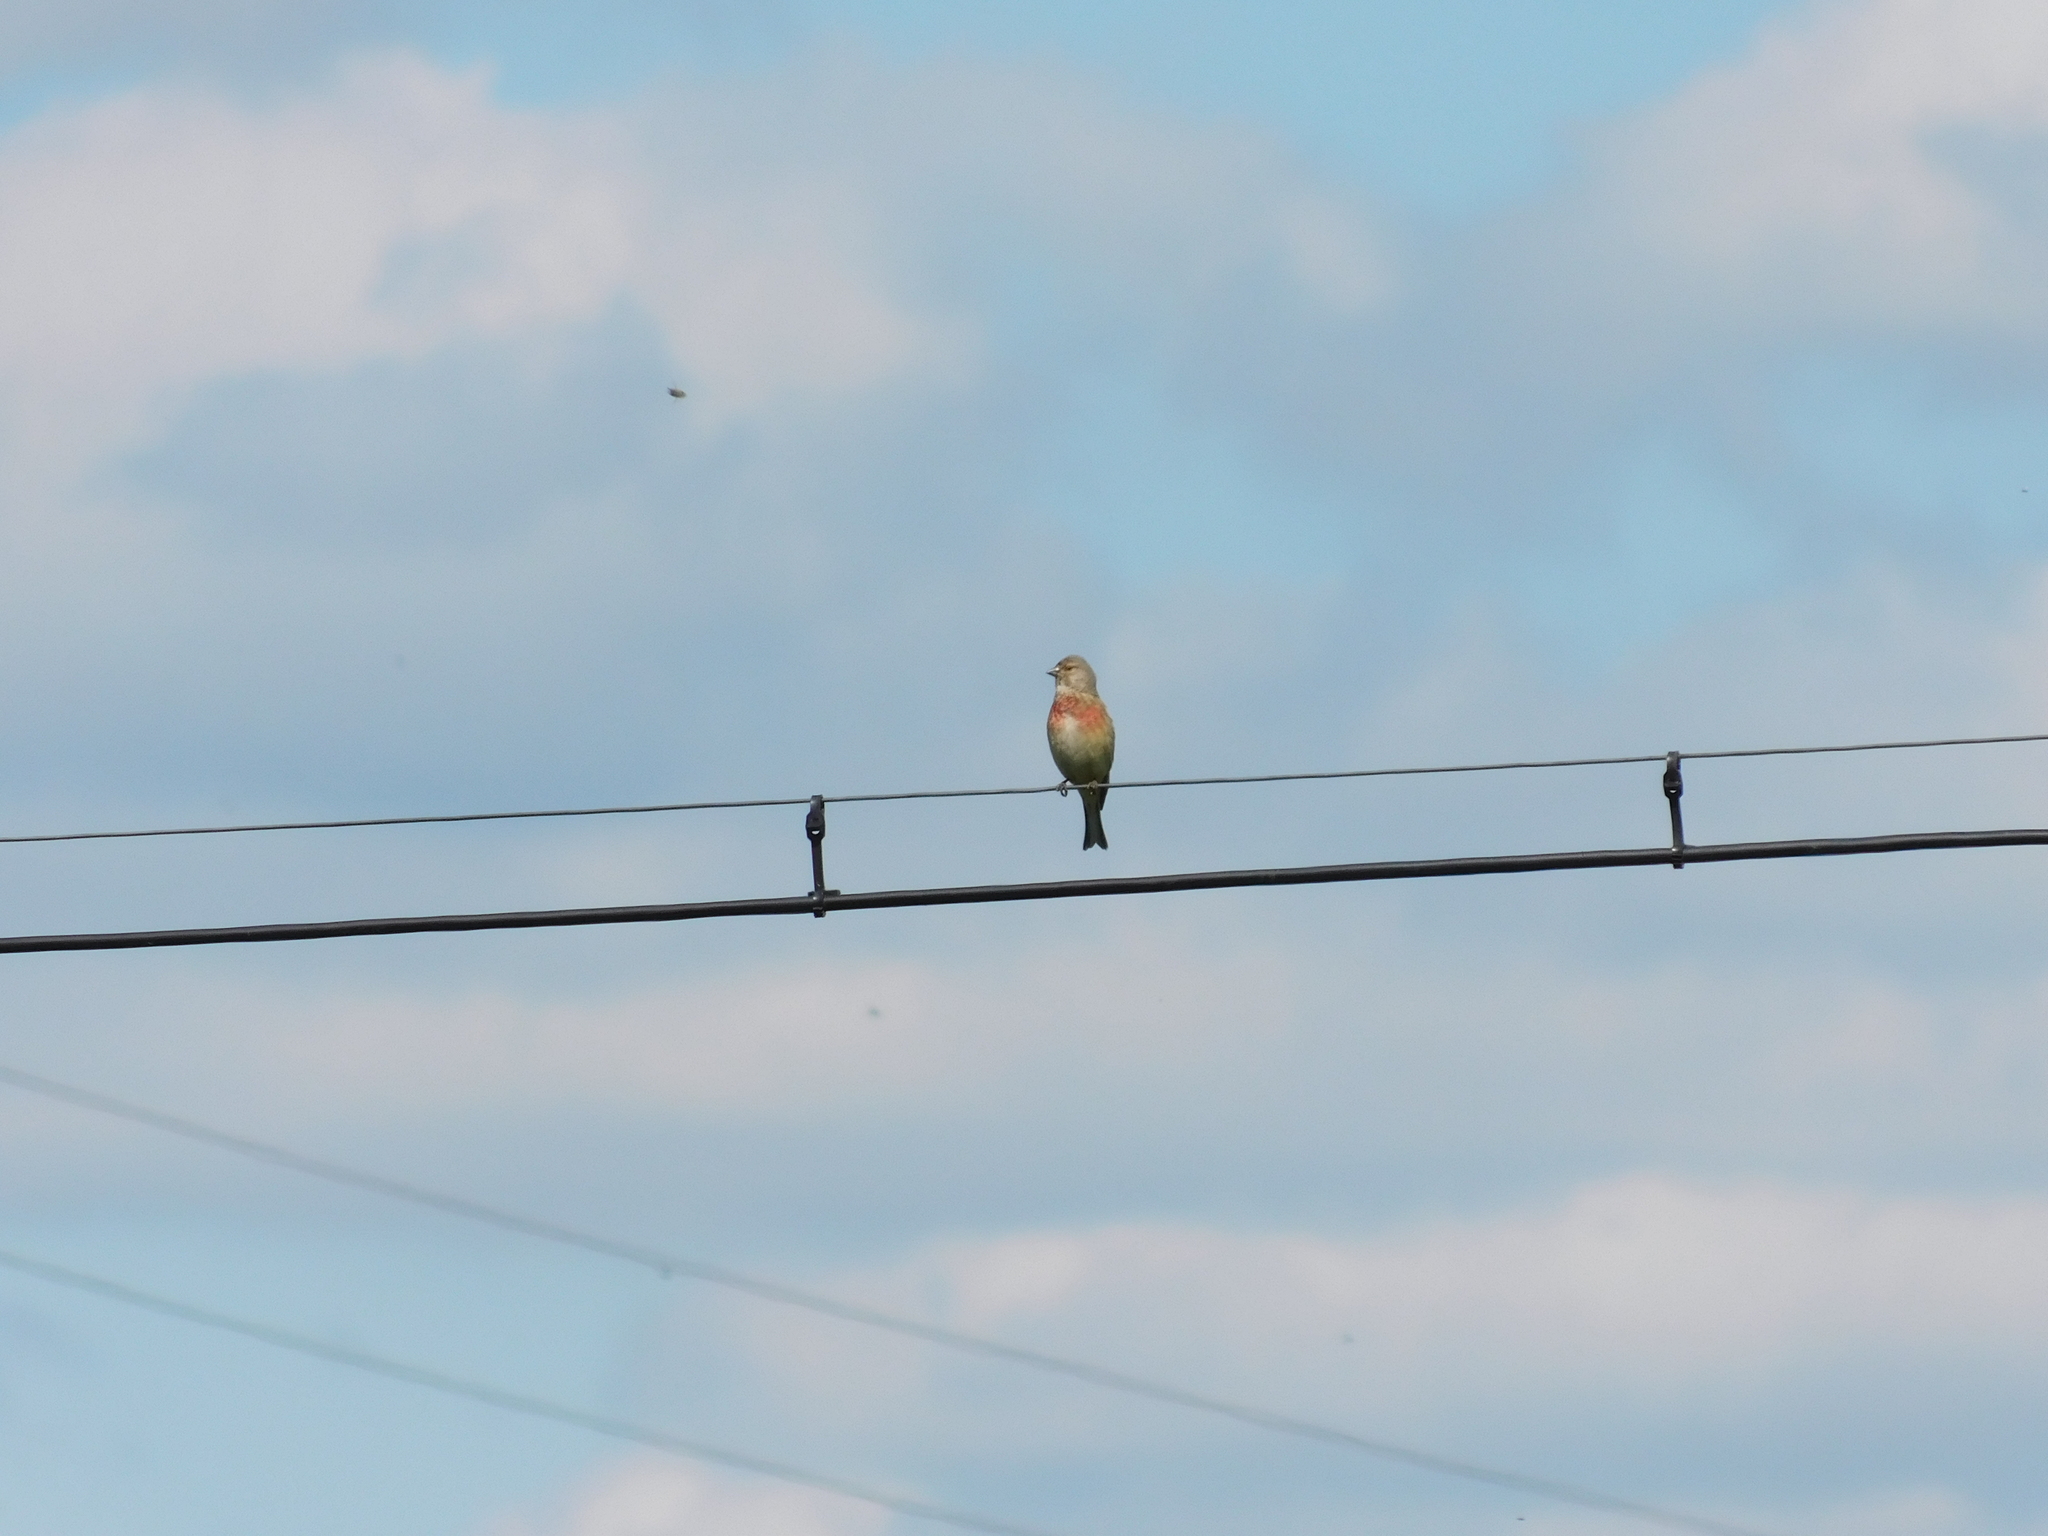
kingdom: Animalia
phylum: Chordata
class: Aves
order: Passeriformes
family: Fringillidae
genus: Linaria
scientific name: Linaria cannabina
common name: Common linnet
